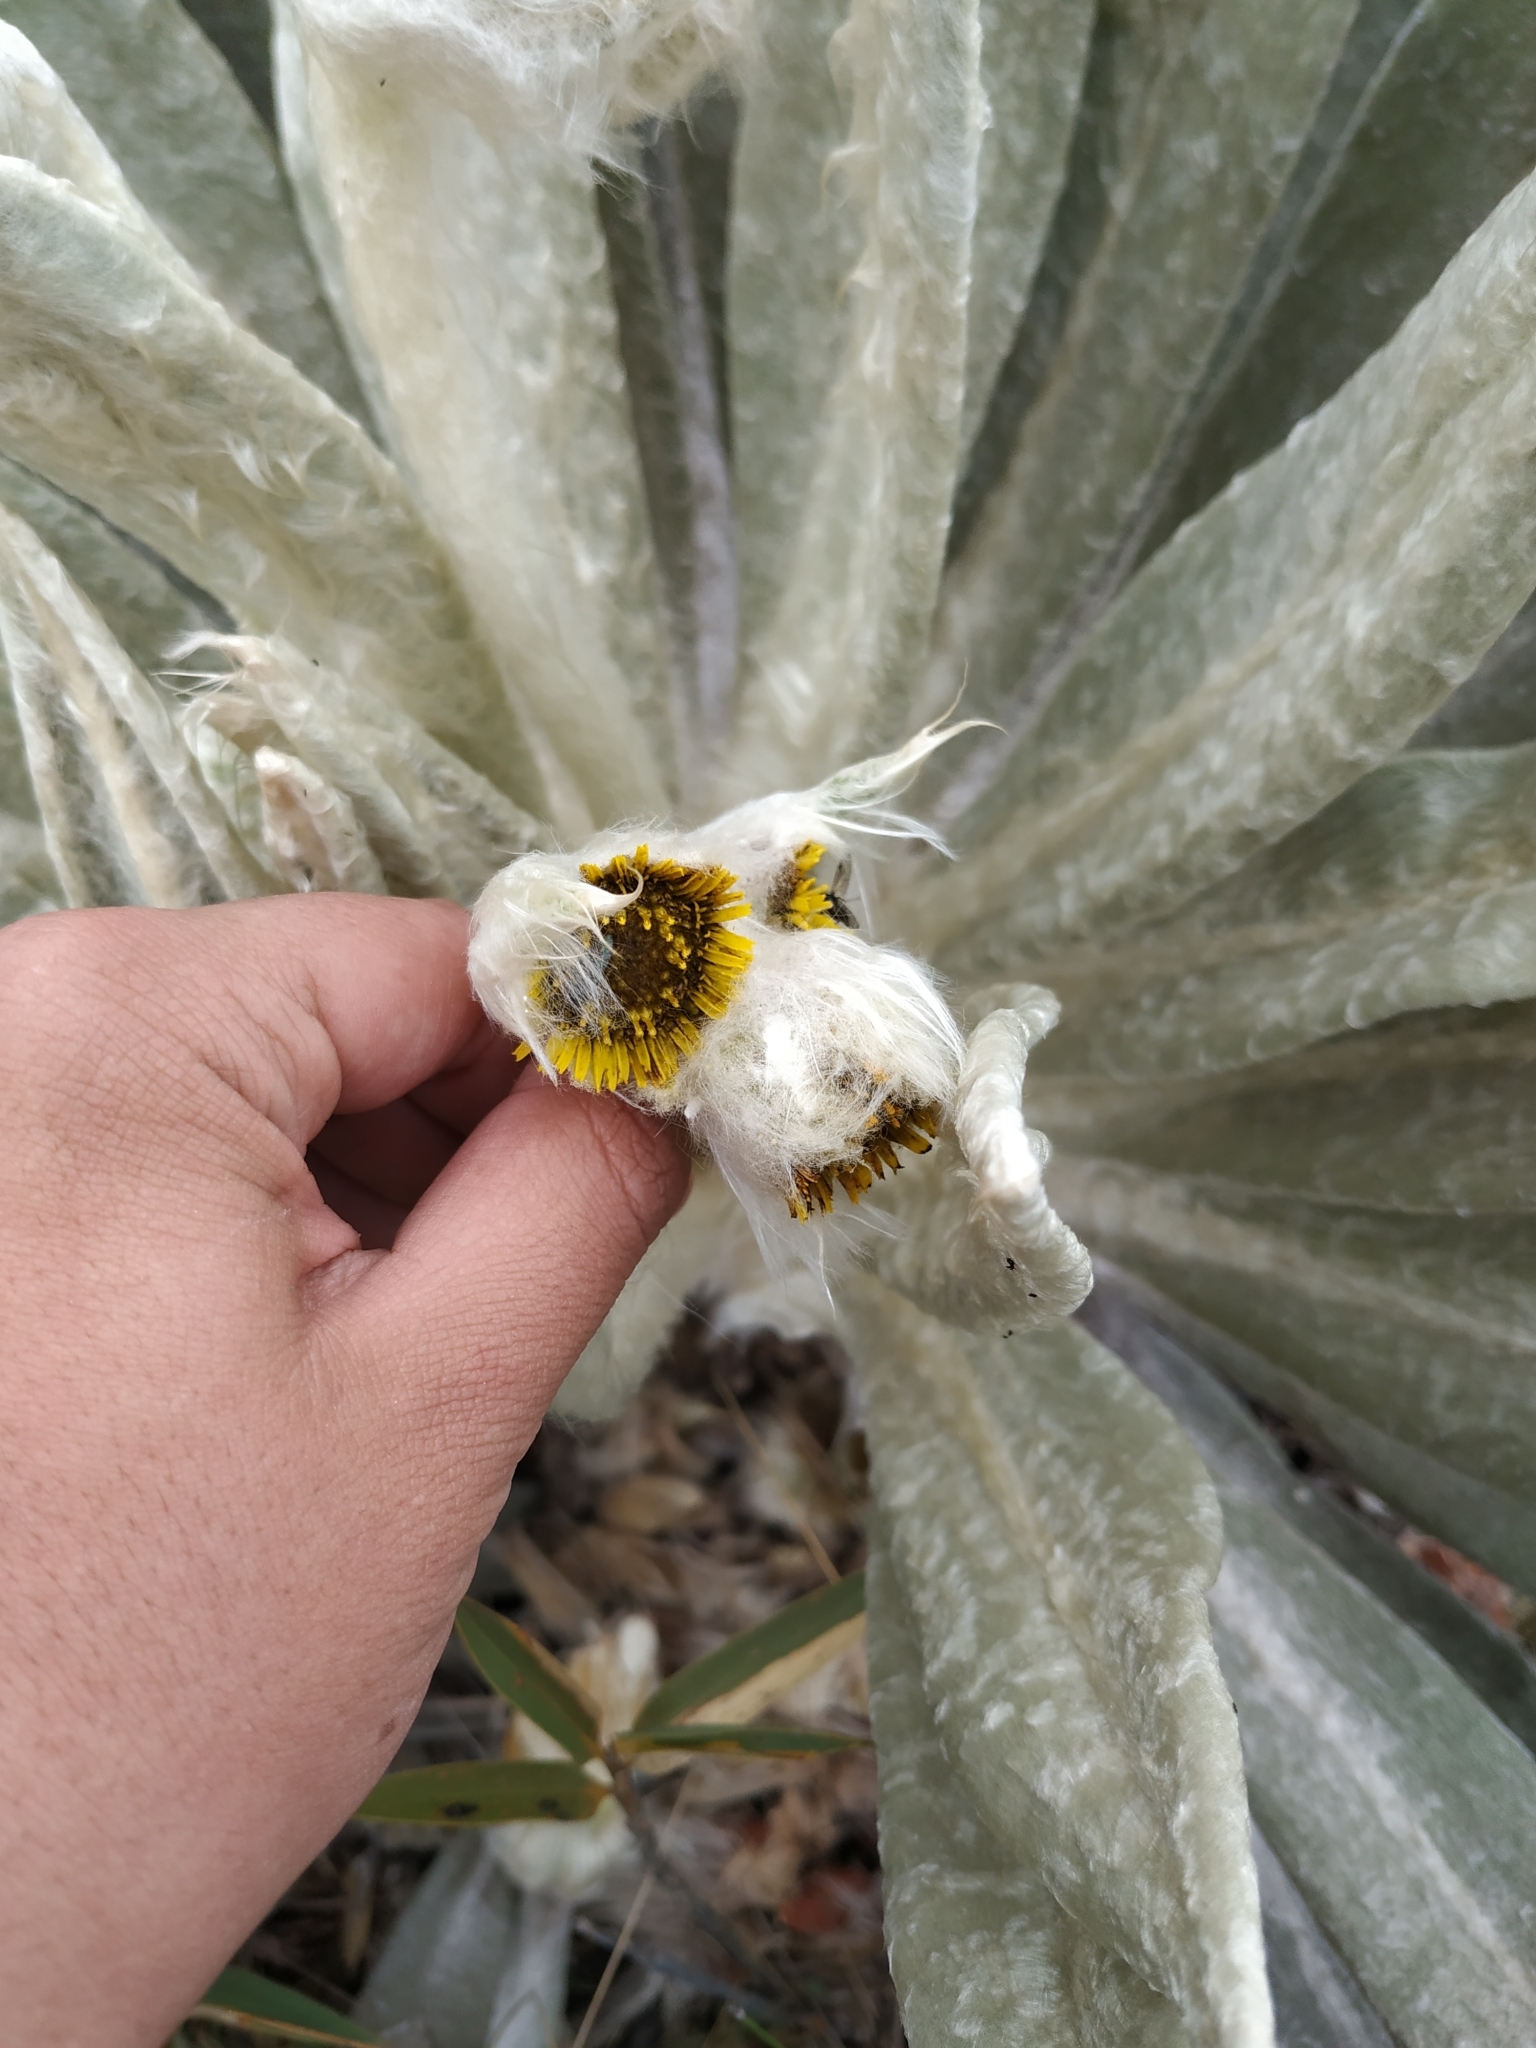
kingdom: Plantae
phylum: Tracheophyta
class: Magnoliopsida
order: Asterales
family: Asteraceae
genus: Espeletia
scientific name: Espeletia incana
